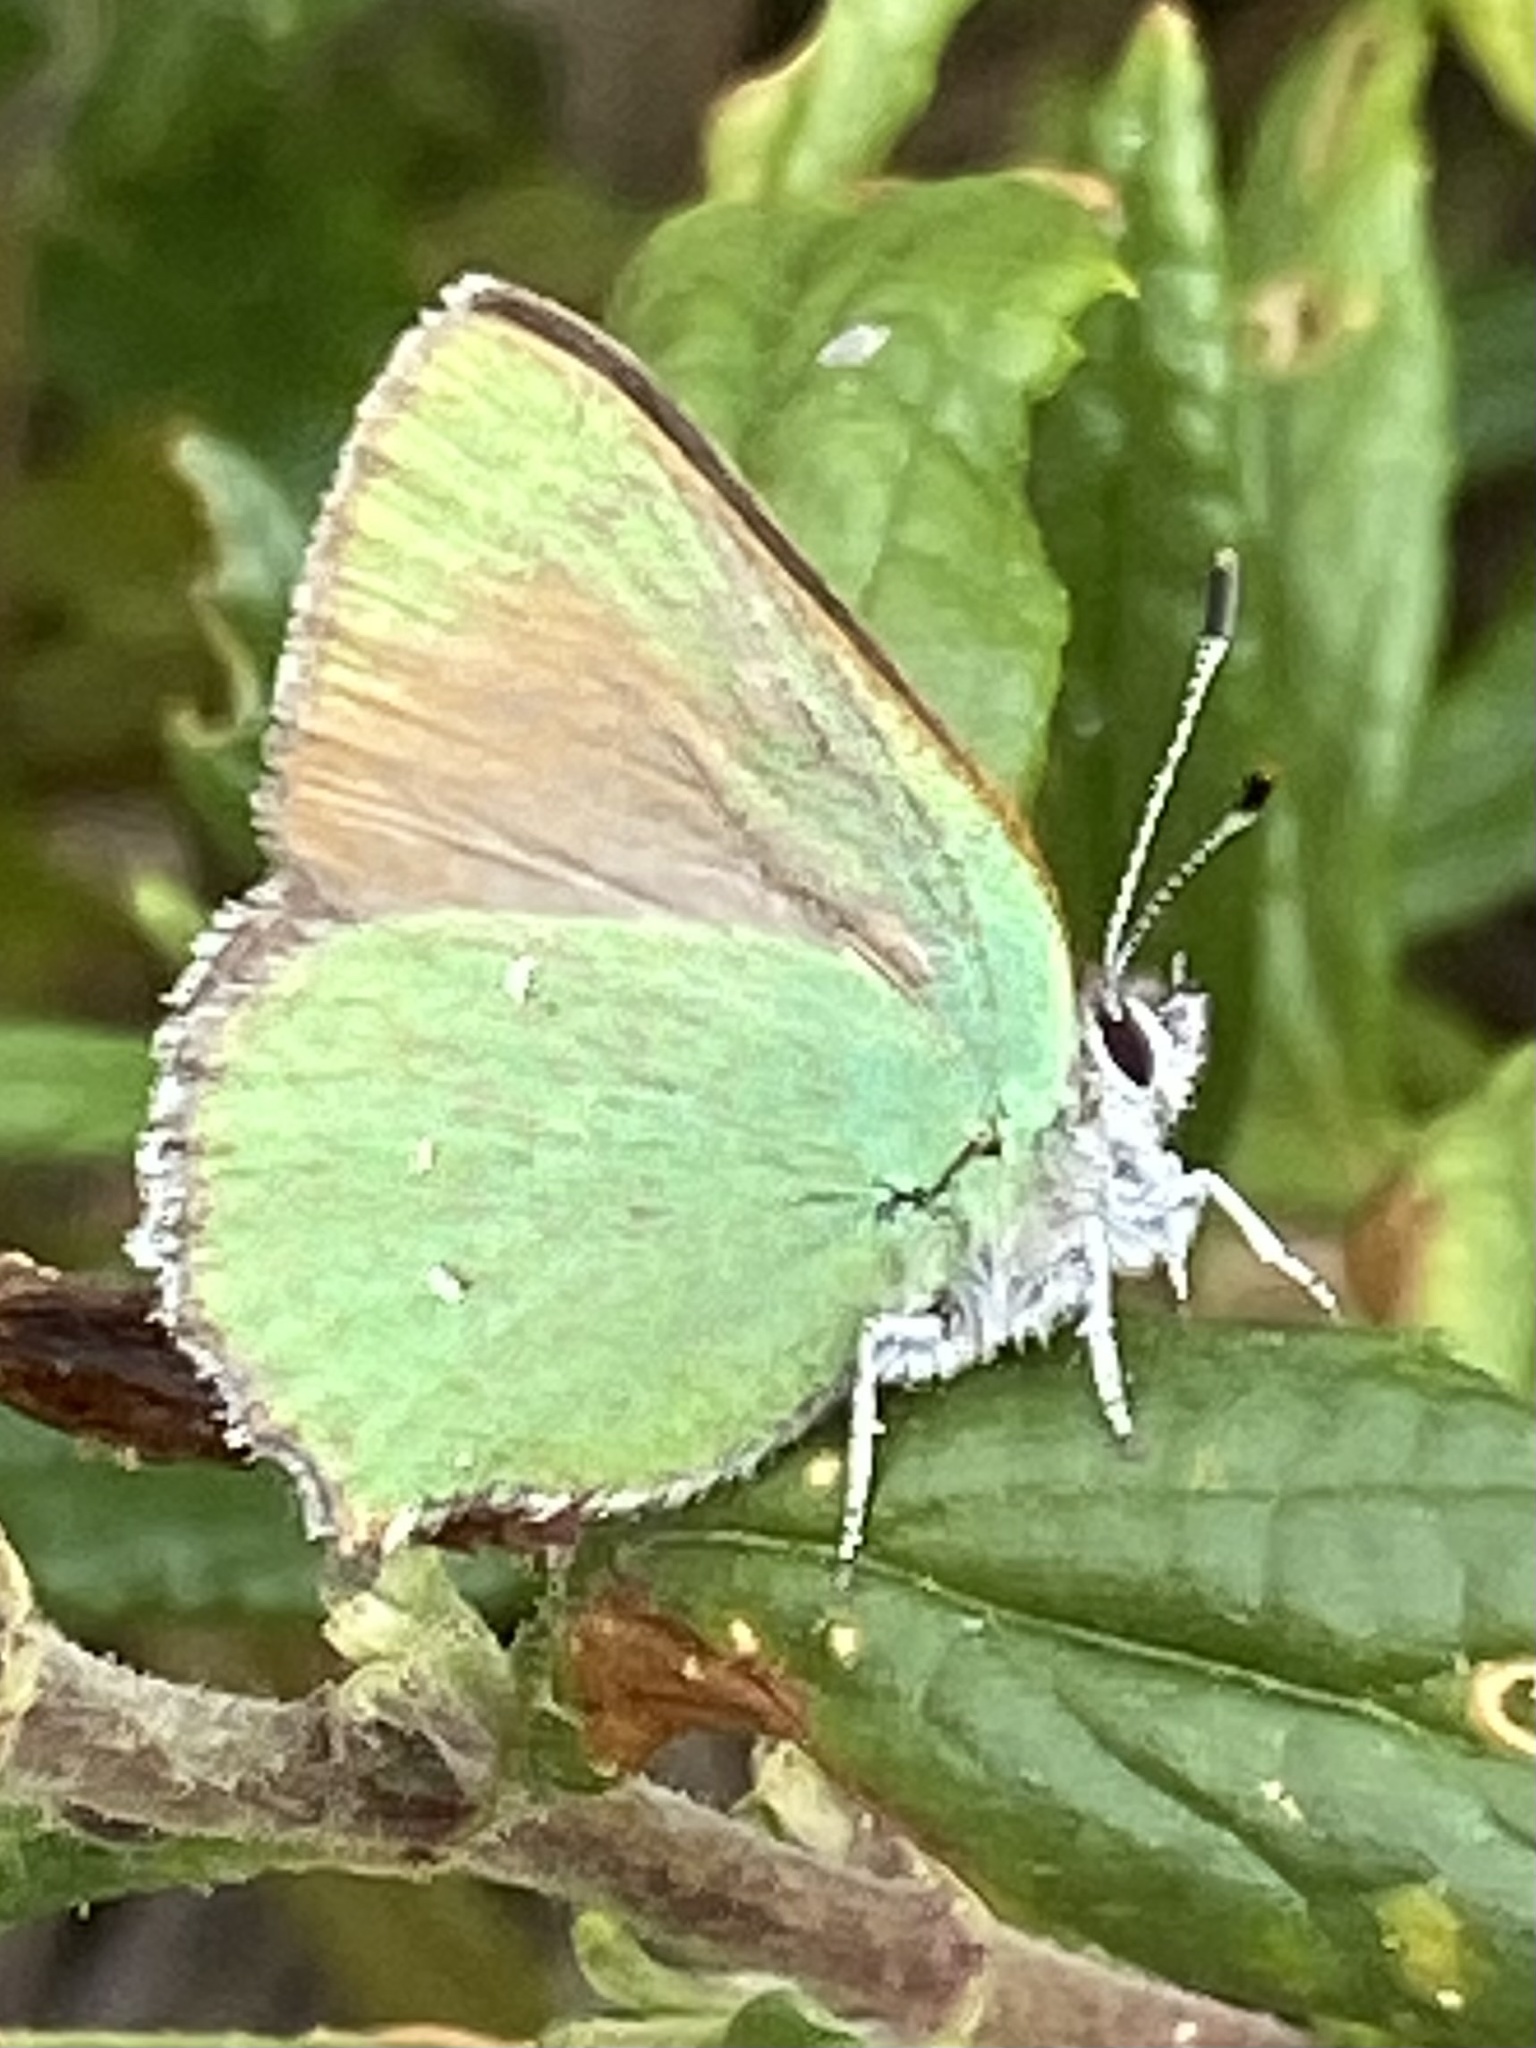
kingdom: Animalia
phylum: Arthropoda
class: Insecta
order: Lepidoptera
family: Lycaenidae
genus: Callophrys
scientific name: Callophrys dumetorum
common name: Bramble hairstreak
